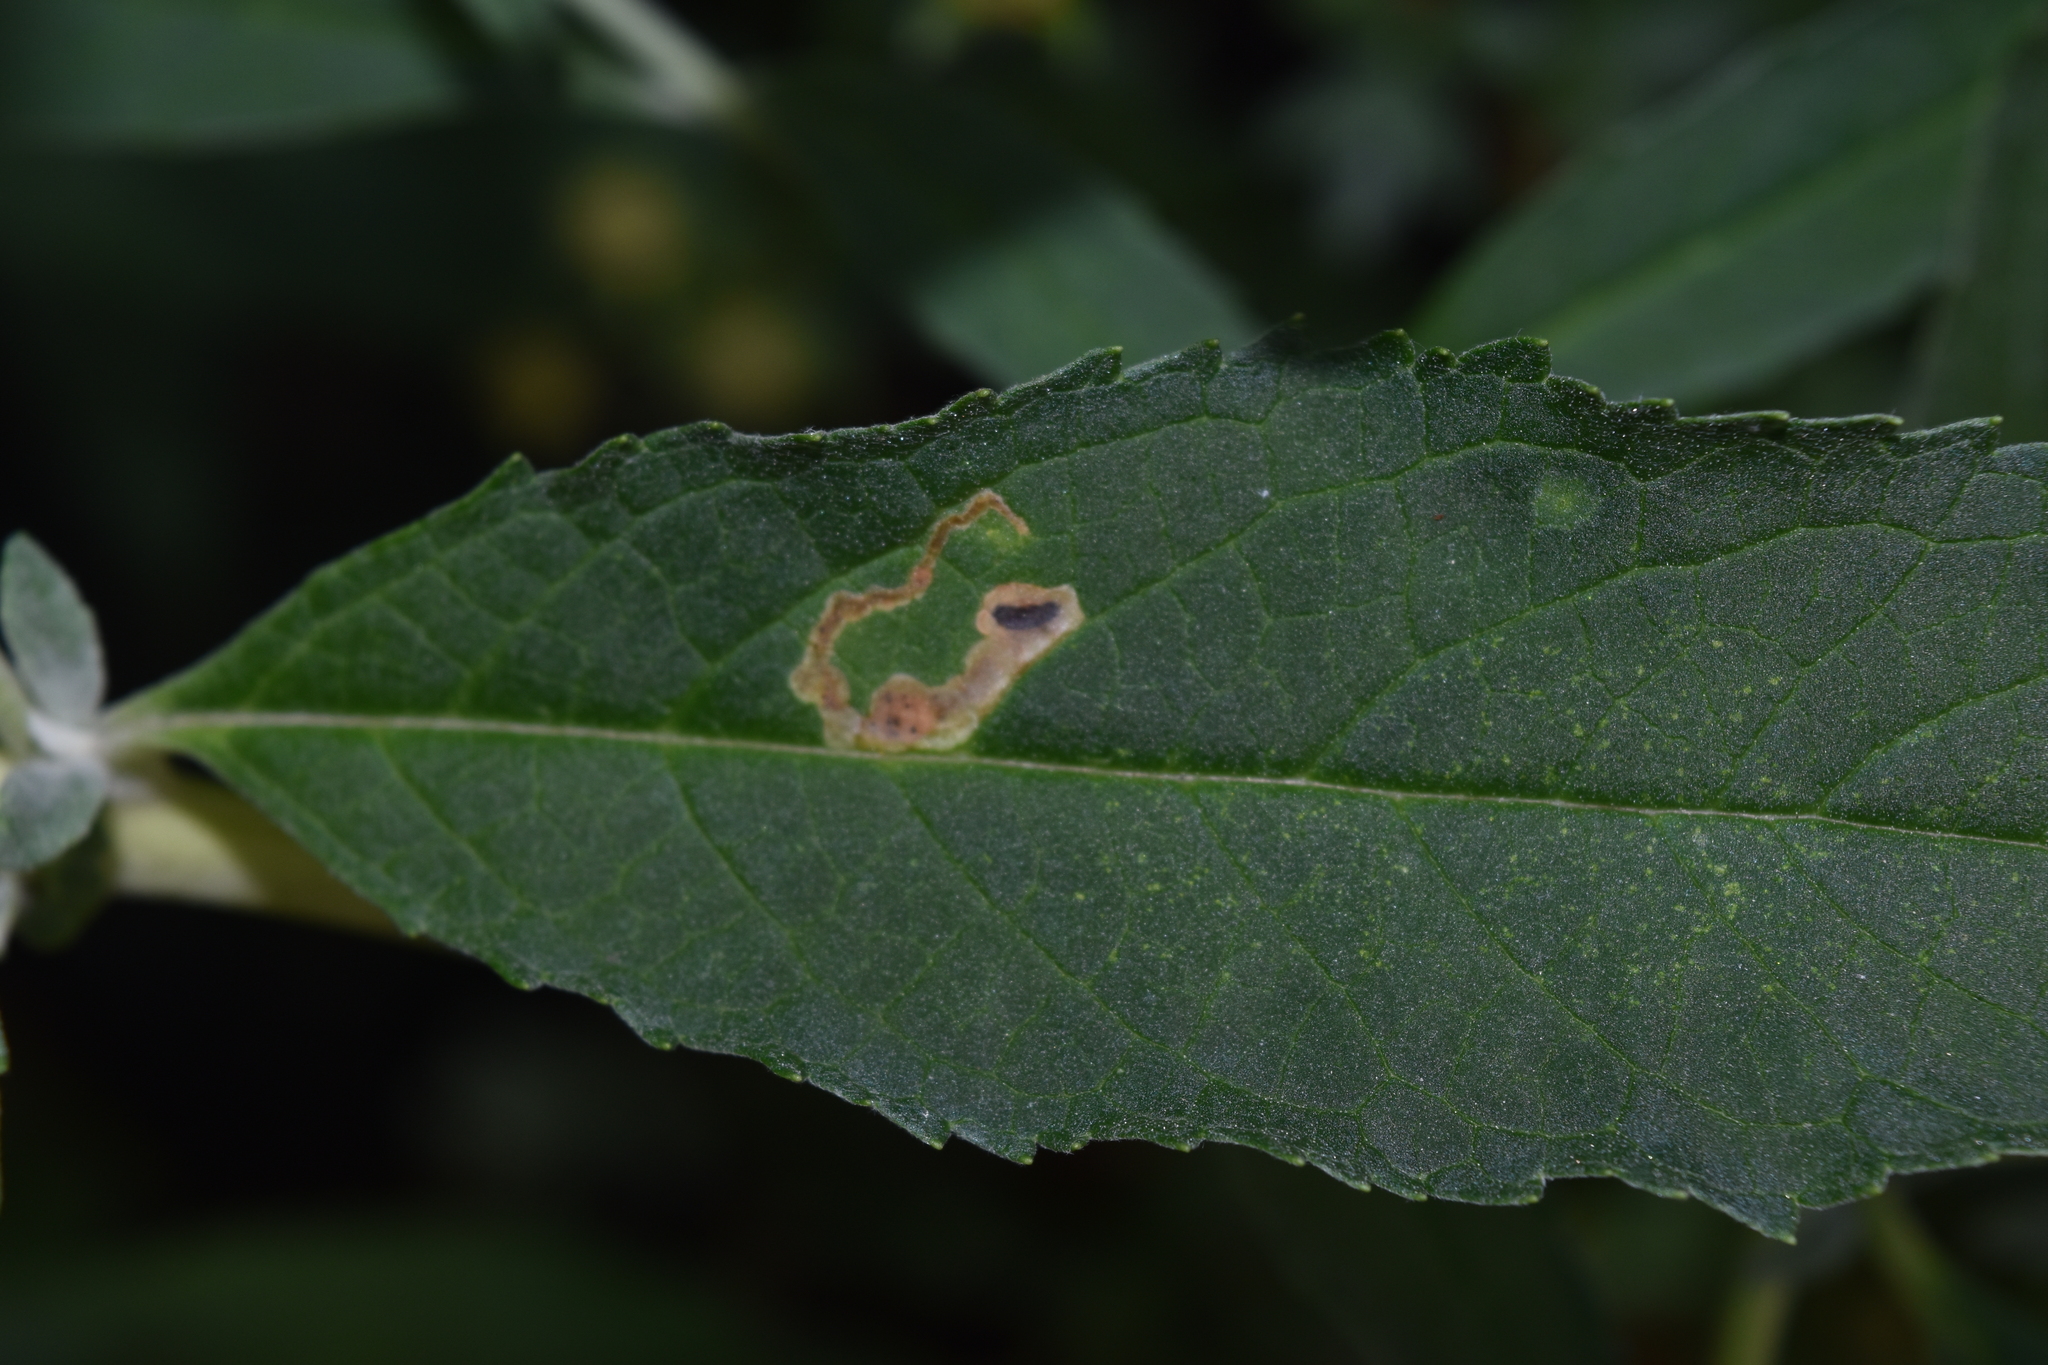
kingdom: Animalia
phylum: Arthropoda
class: Insecta
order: Diptera
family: Agromyzidae
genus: Amauromyza
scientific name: Amauromyza verbasci
